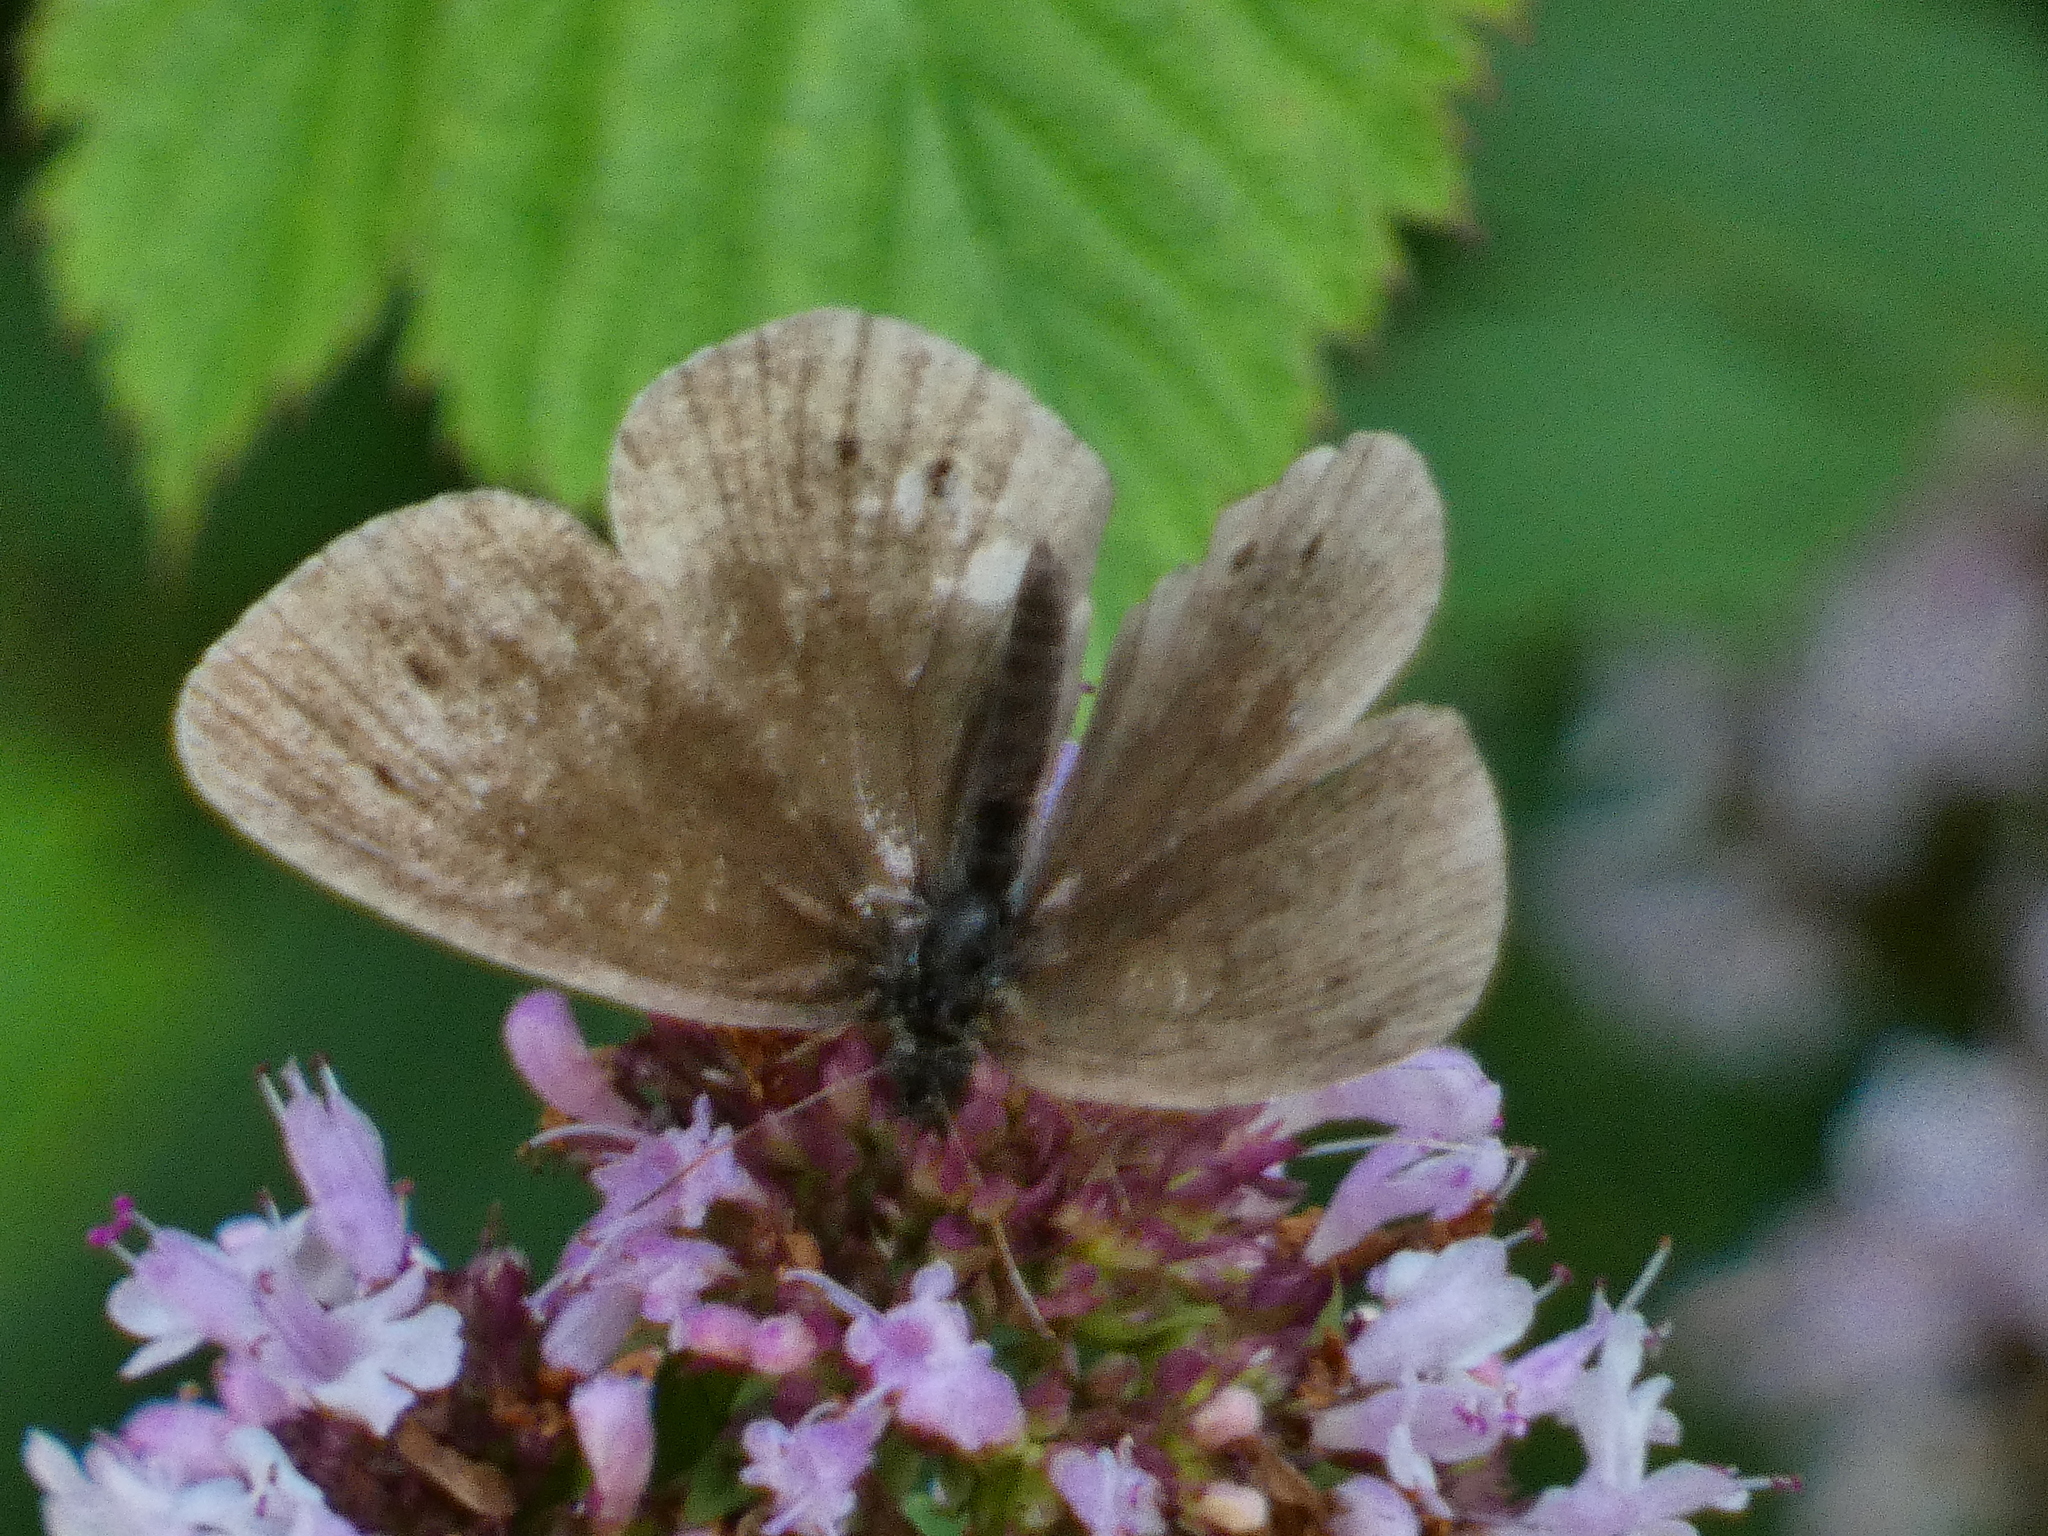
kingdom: Animalia
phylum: Arthropoda
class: Insecta
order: Lepidoptera
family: Nymphalidae
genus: Aphantopus
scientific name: Aphantopus hyperantus
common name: Ringlet
